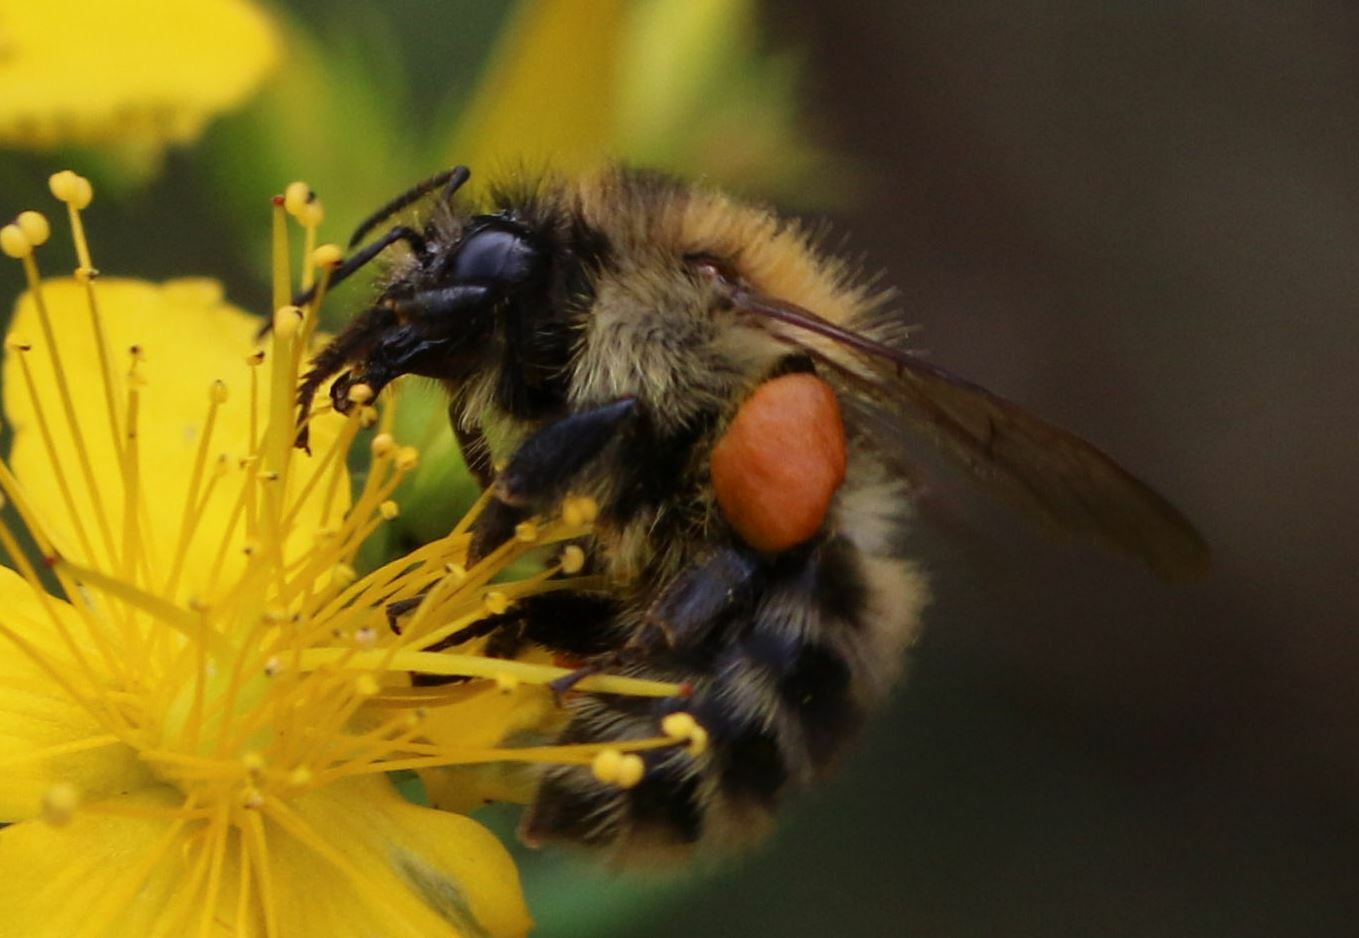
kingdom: Animalia
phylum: Arthropoda
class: Insecta
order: Hymenoptera
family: Apidae
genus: Bombus
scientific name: Bombus pascuorum
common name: Common carder bee
